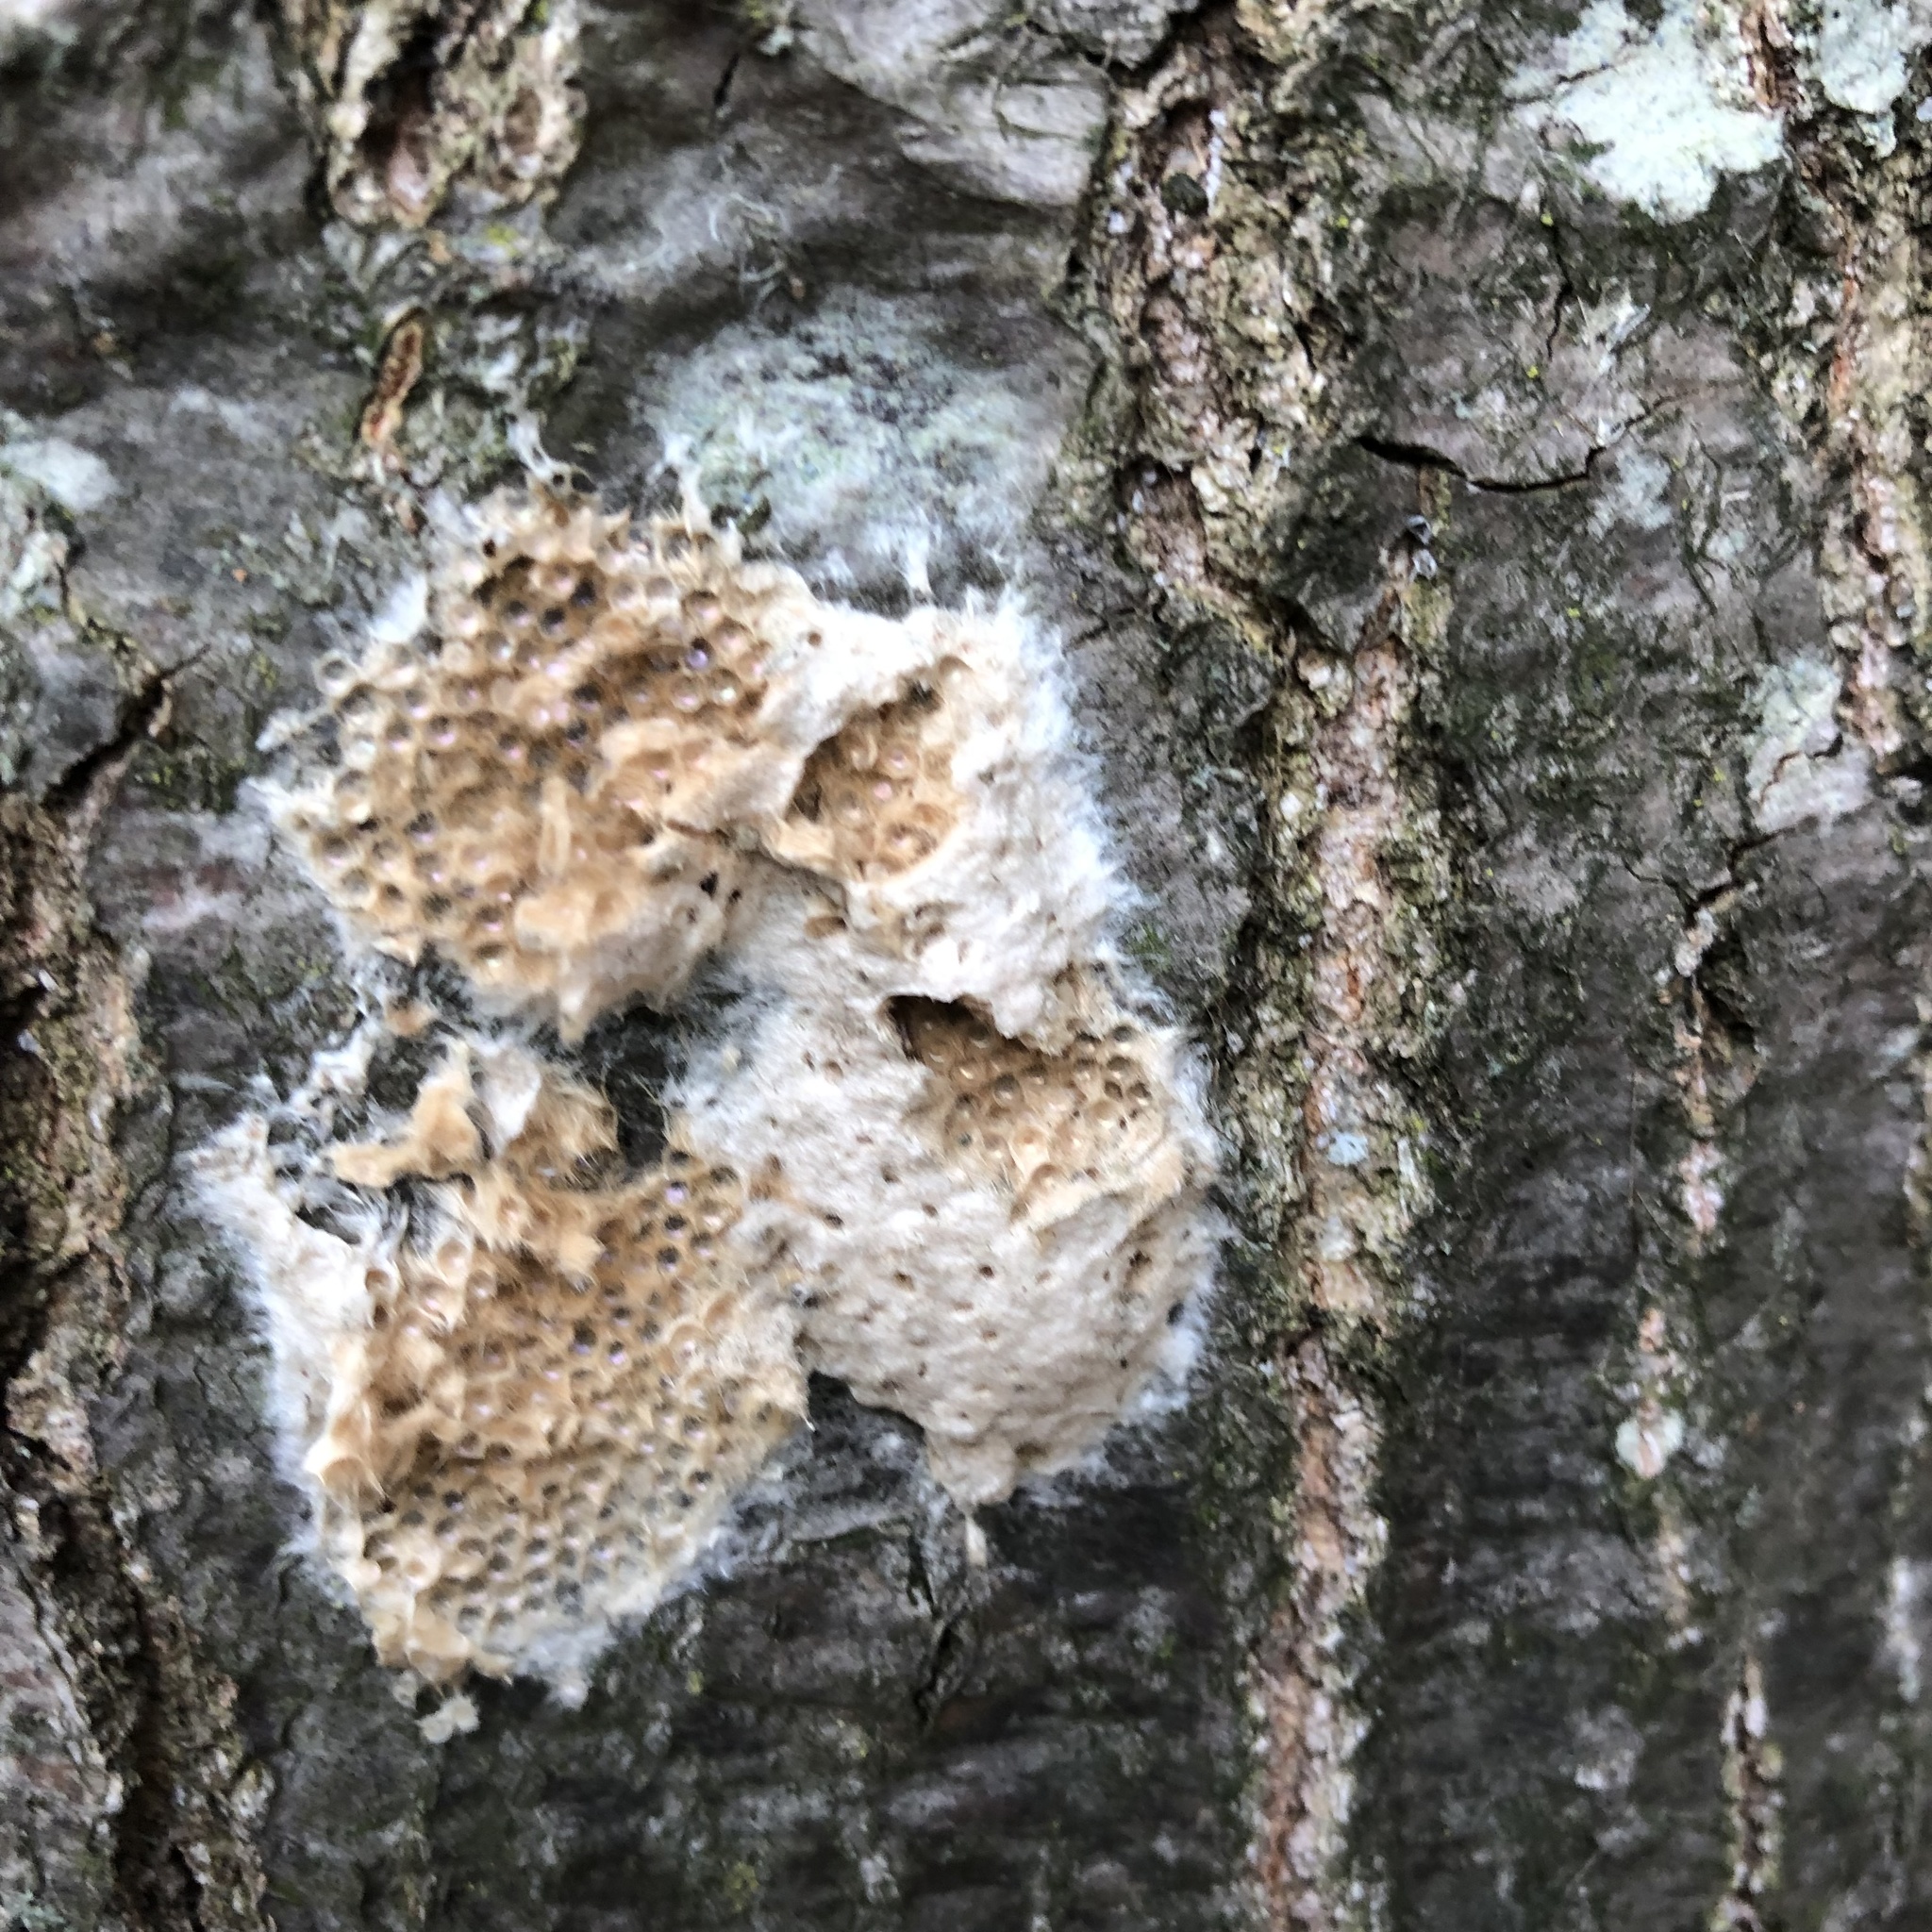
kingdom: Animalia
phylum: Arthropoda
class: Insecta
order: Lepidoptera
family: Erebidae
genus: Lymantria
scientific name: Lymantria dispar
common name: Gypsy moth
